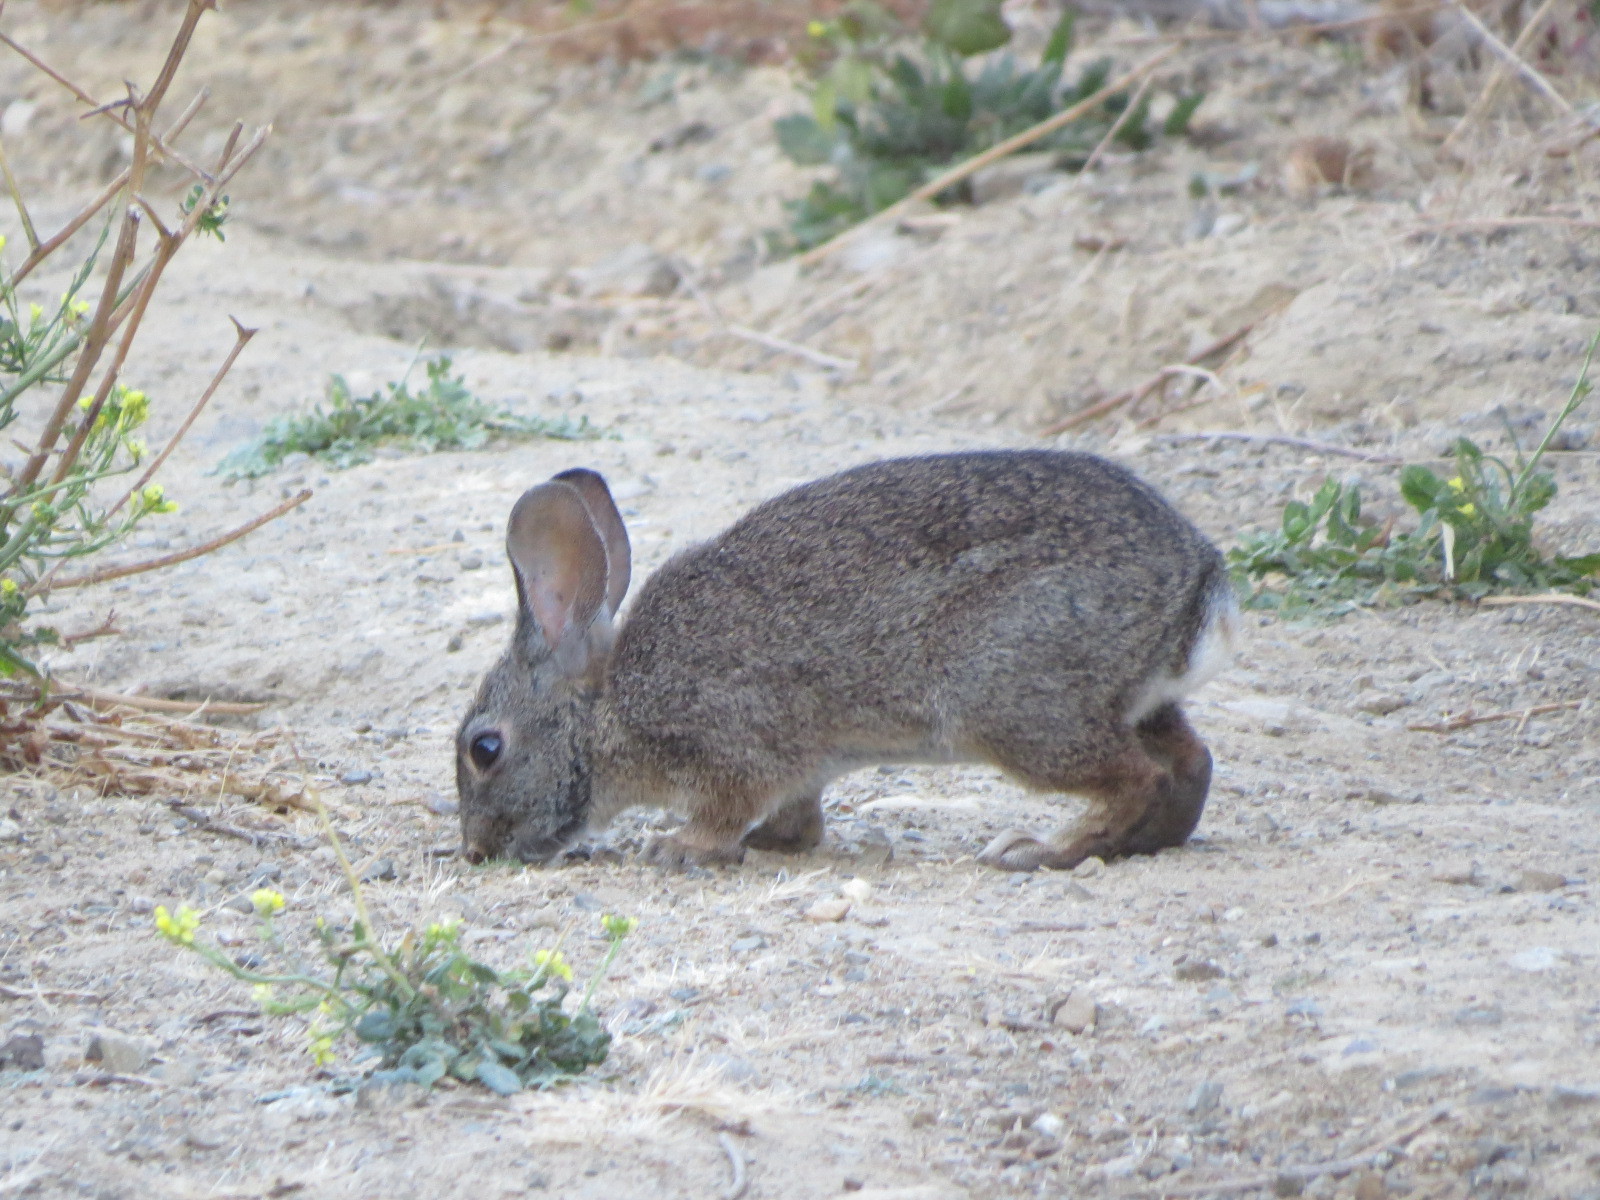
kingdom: Animalia
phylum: Chordata
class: Mammalia
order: Lagomorpha
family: Leporidae
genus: Sylvilagus
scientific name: Sylvilagus bachmani
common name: Brush rabbit
